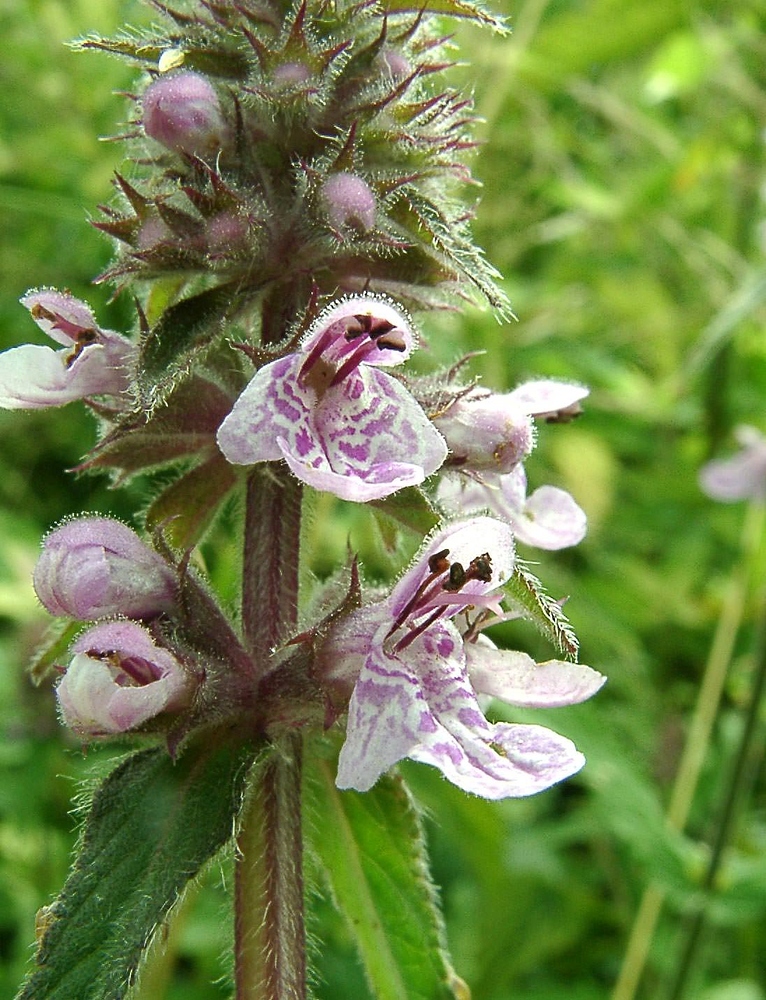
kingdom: Plantae
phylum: Tracheophyta
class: Magnoliopsida
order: Lamiales
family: Lamiaceae
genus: Stachys
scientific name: Stachys palustris
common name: Marsh woundwort
